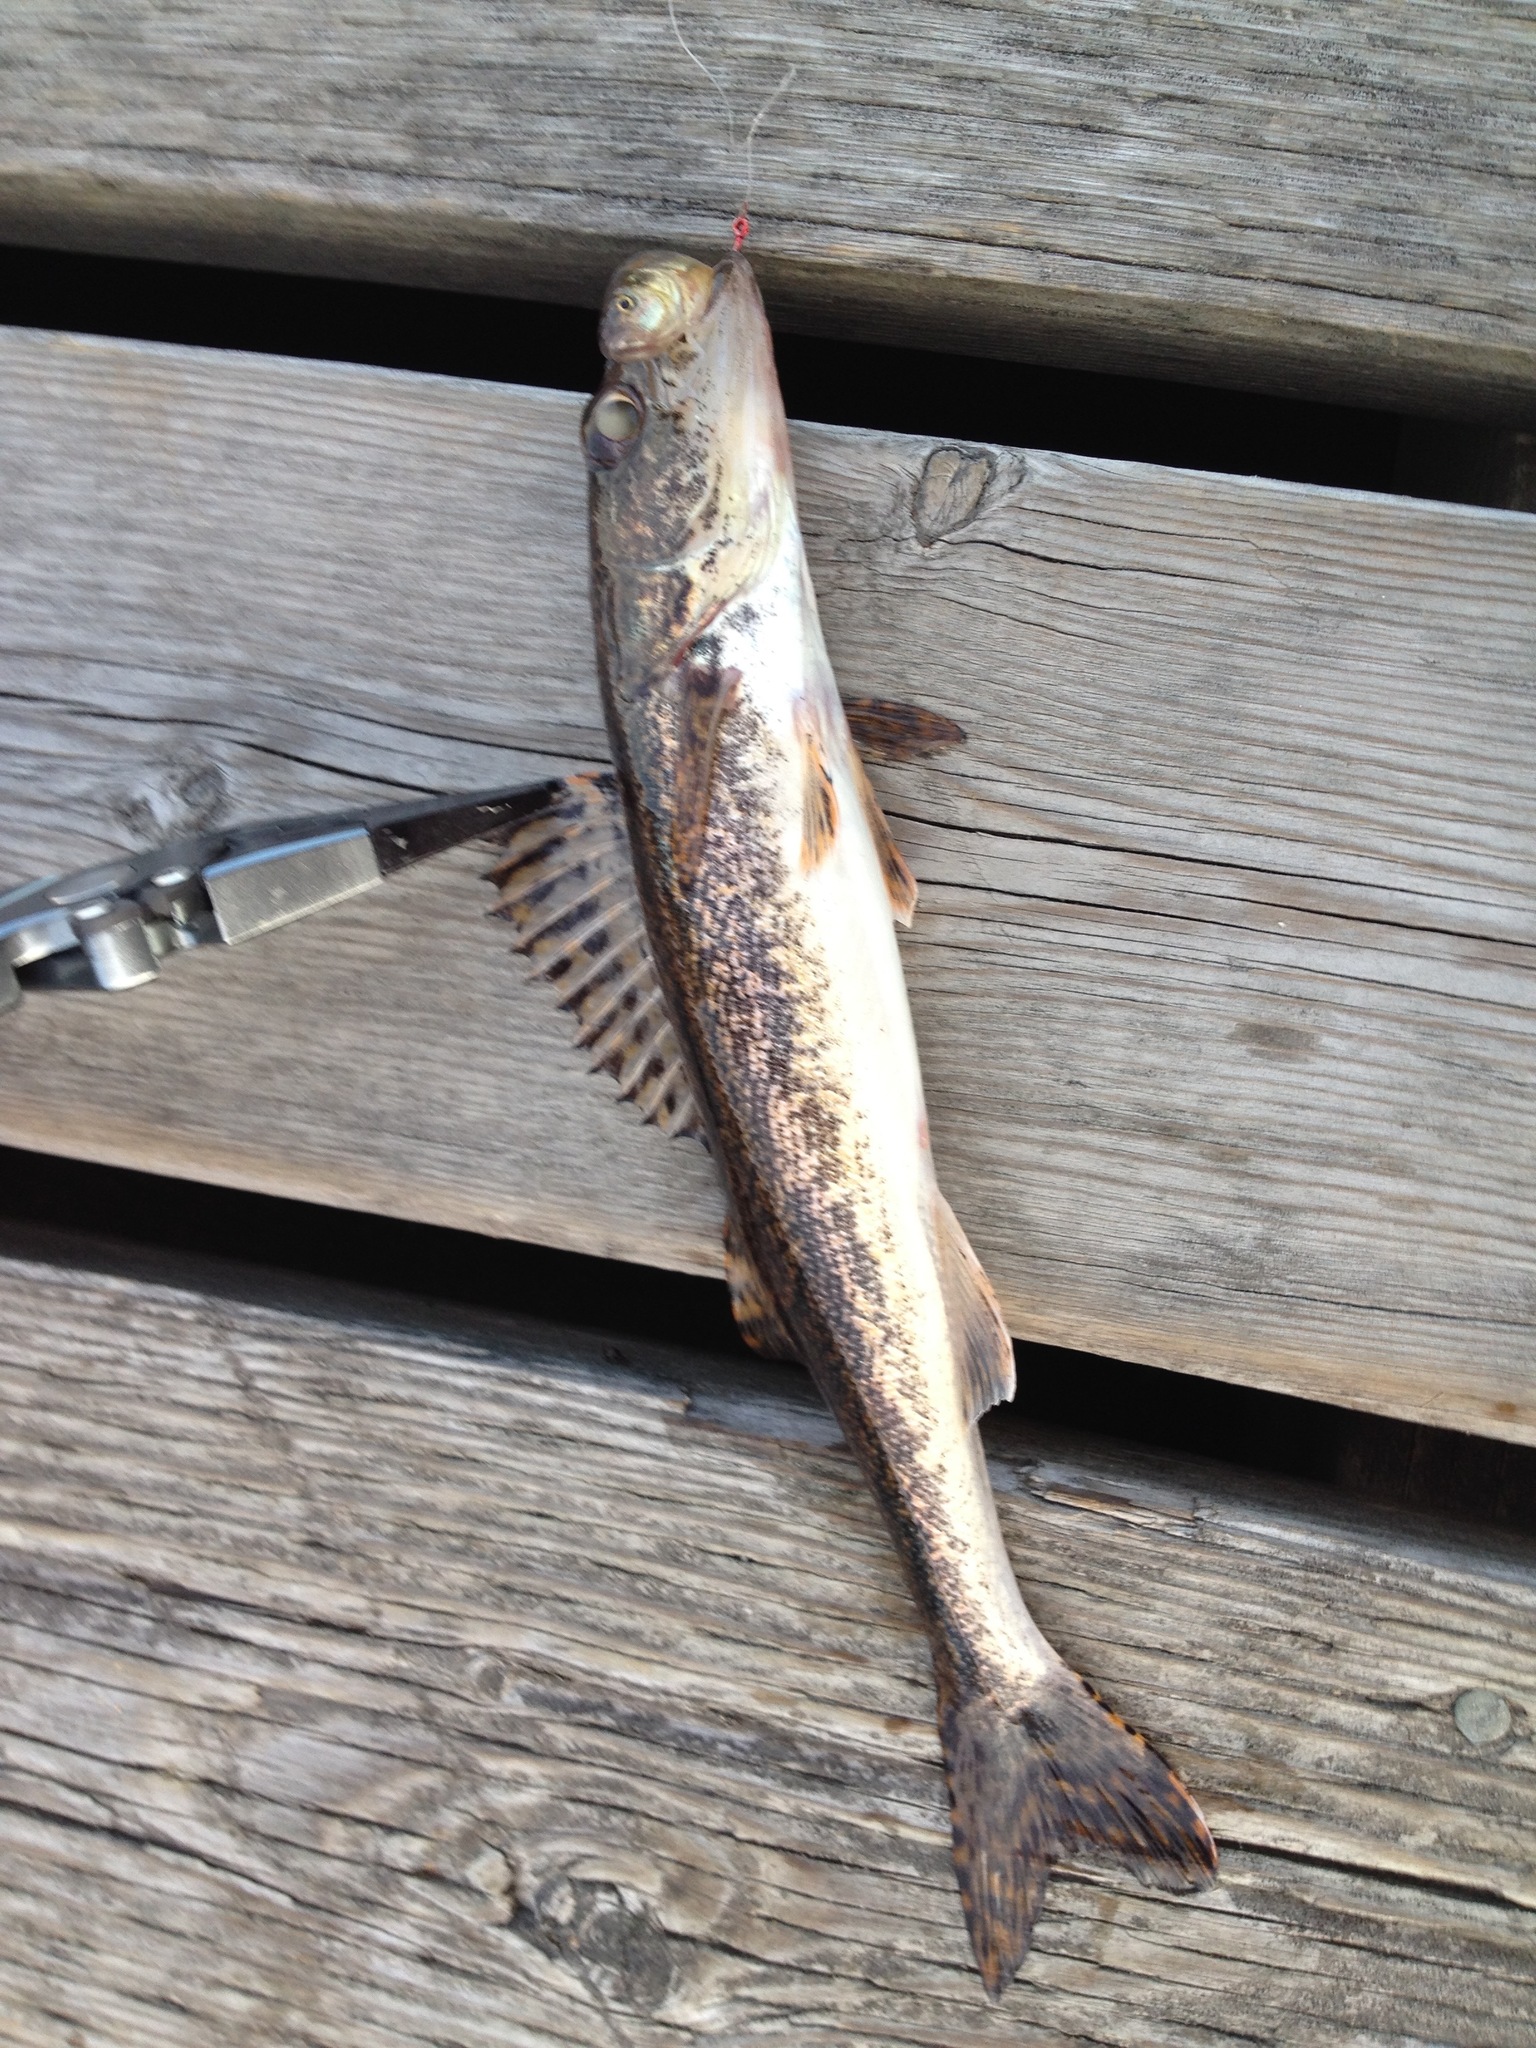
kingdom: Animalia
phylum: Chordata
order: Perciformes
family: Percidae
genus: Sander
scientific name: Sander canadensis
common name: Sauger
